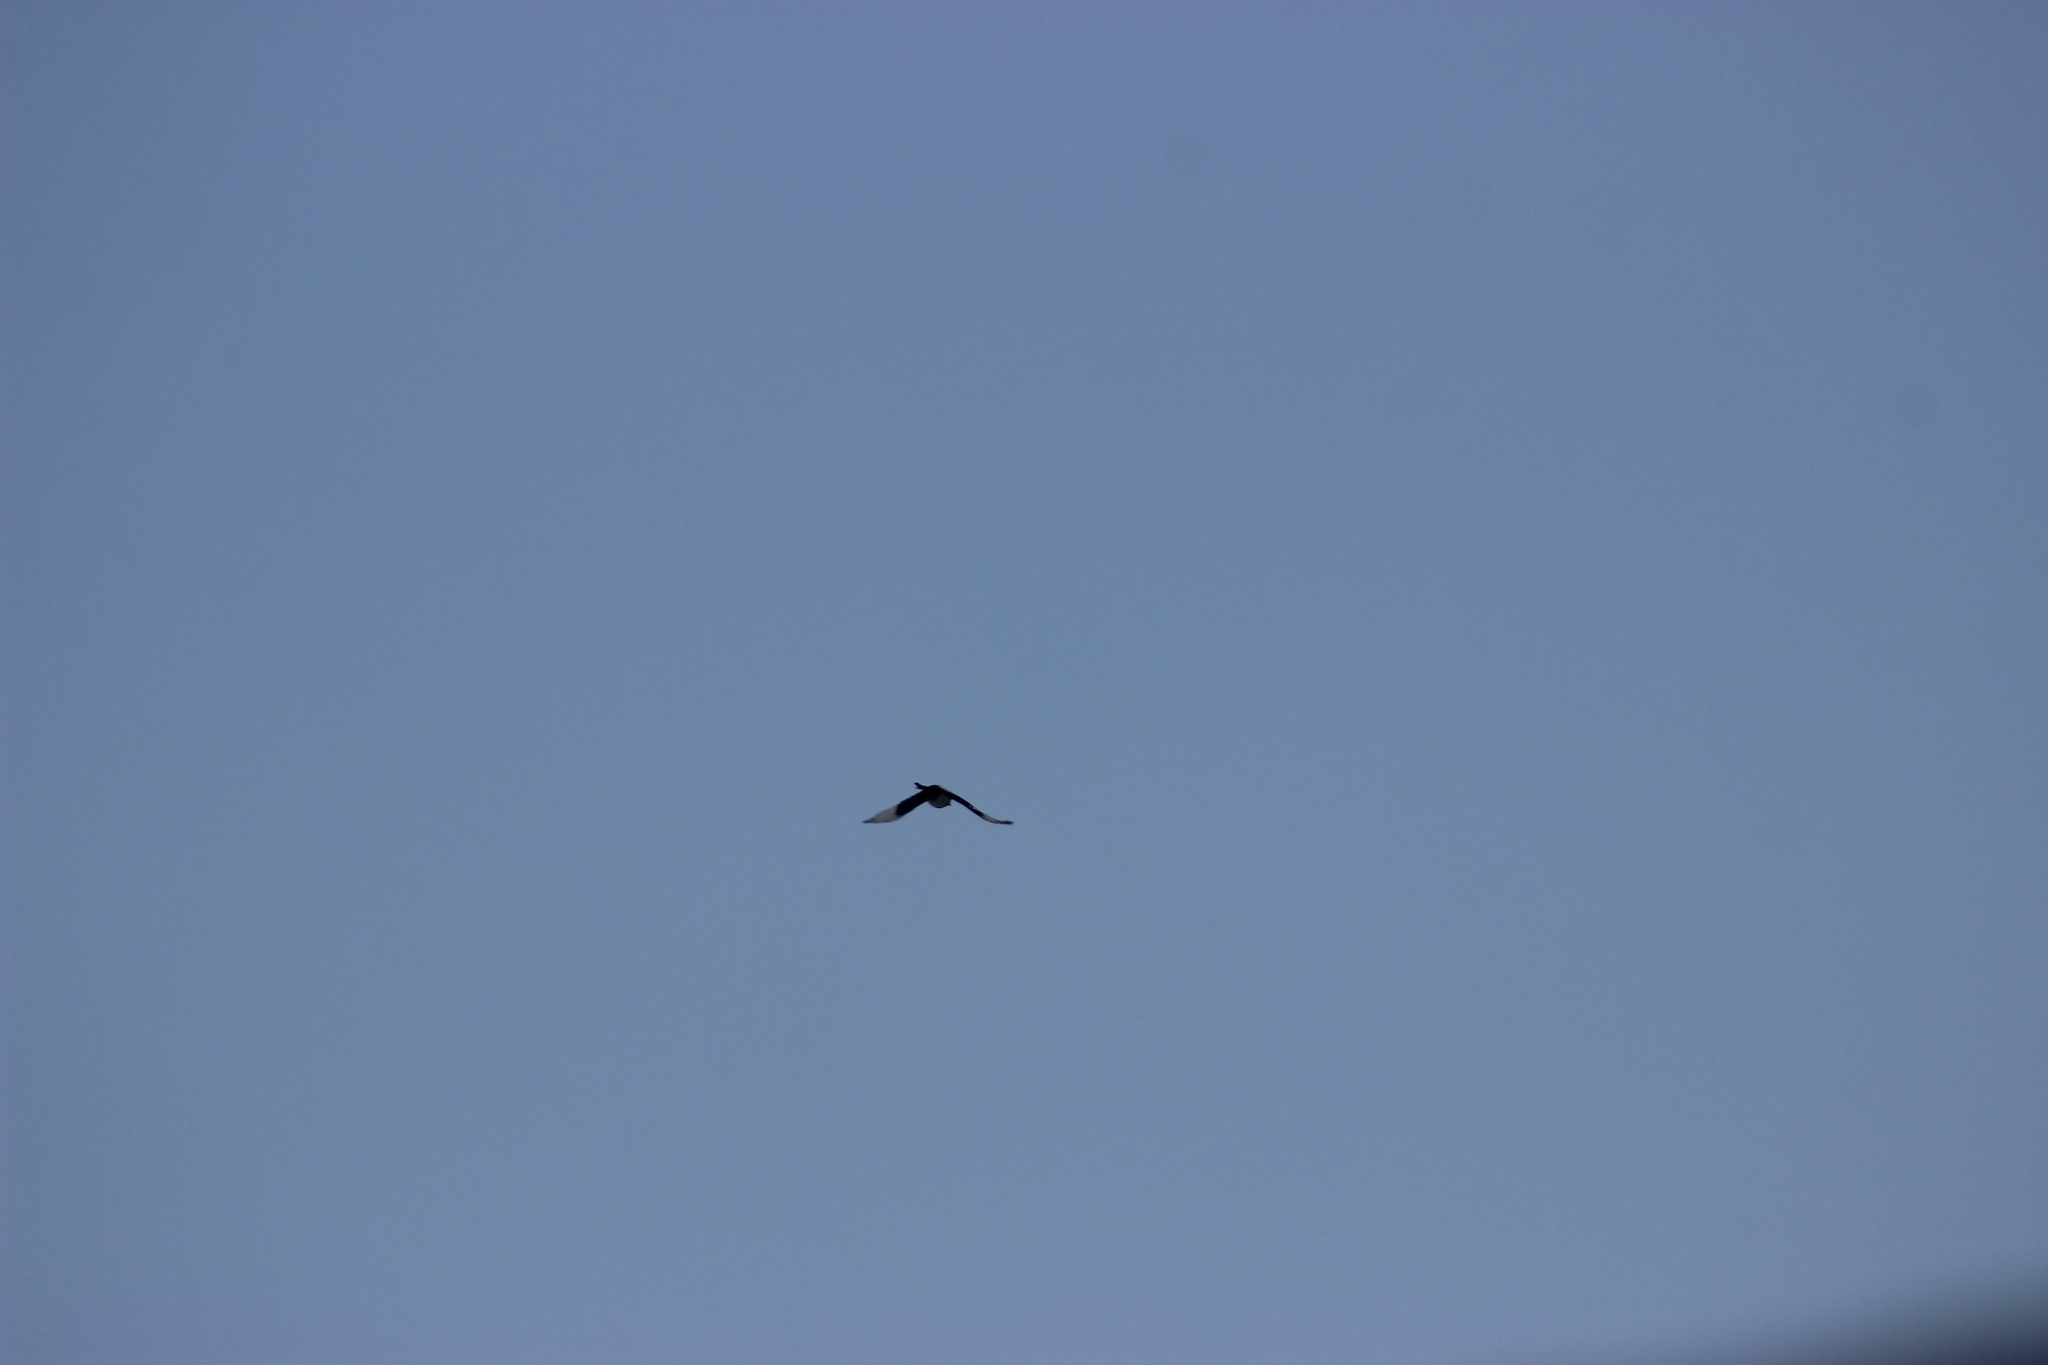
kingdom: Animalia
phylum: Chordata
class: Aves
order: Passeriformes
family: Corvidae
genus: Pica
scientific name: Pica pica
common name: Eurasian magpie
